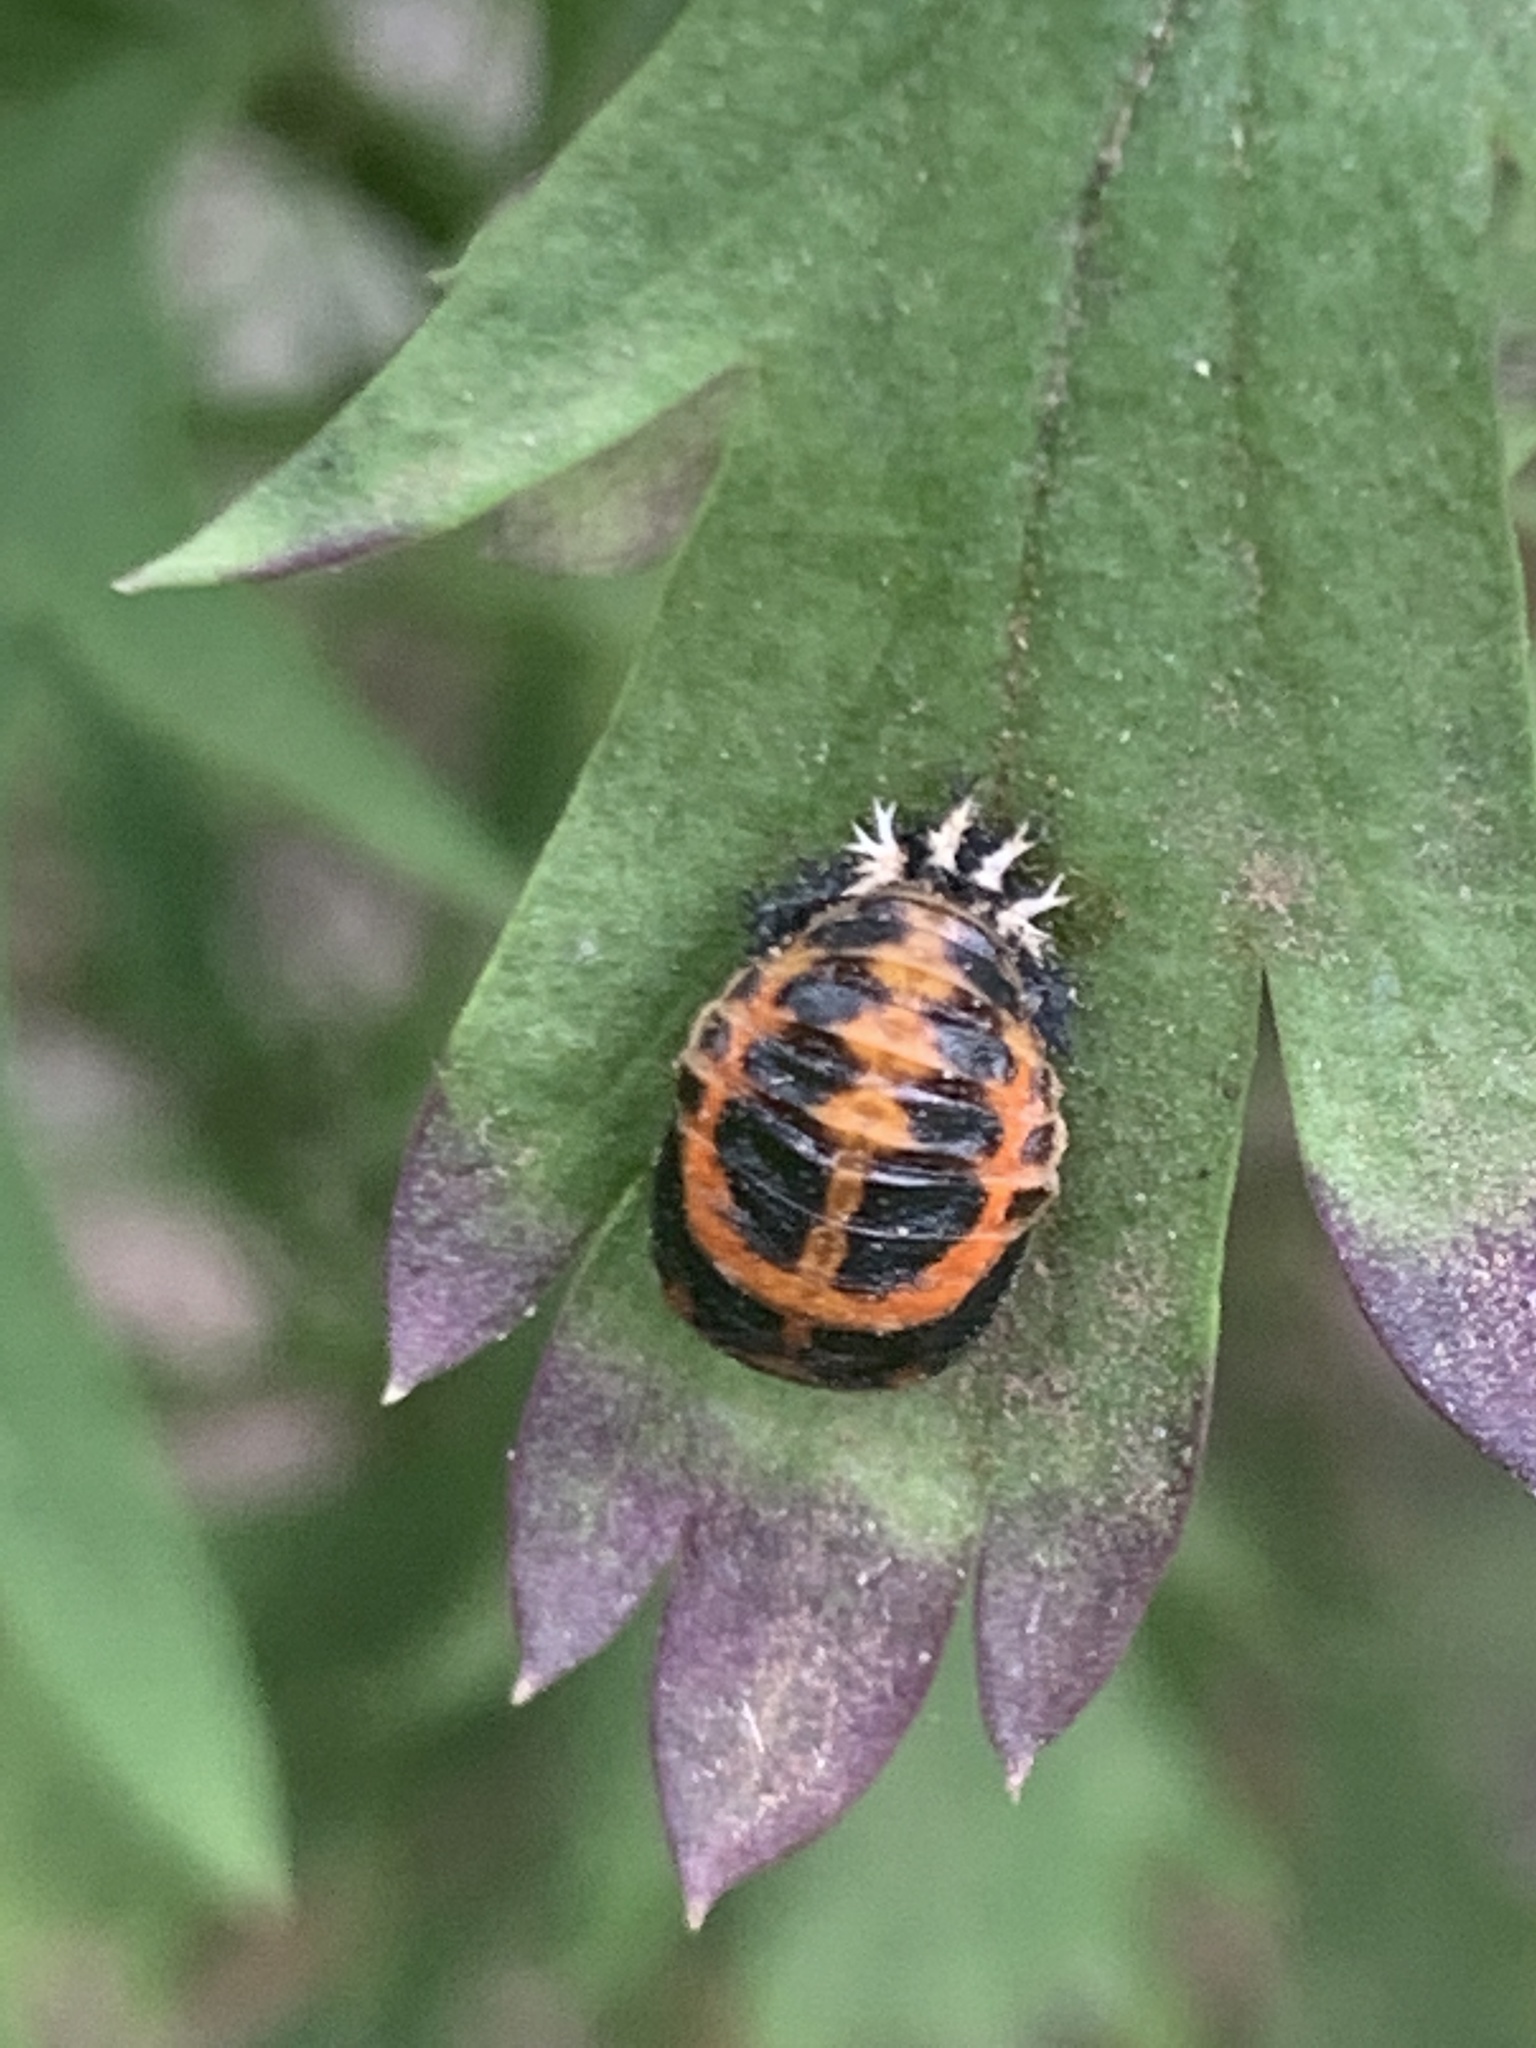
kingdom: Animalia
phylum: Arthropoda
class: Insecta
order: Coleoptera
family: Coccinellidae
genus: Harmonia
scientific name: Harmonia axyridis
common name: Harlequin ladybird
